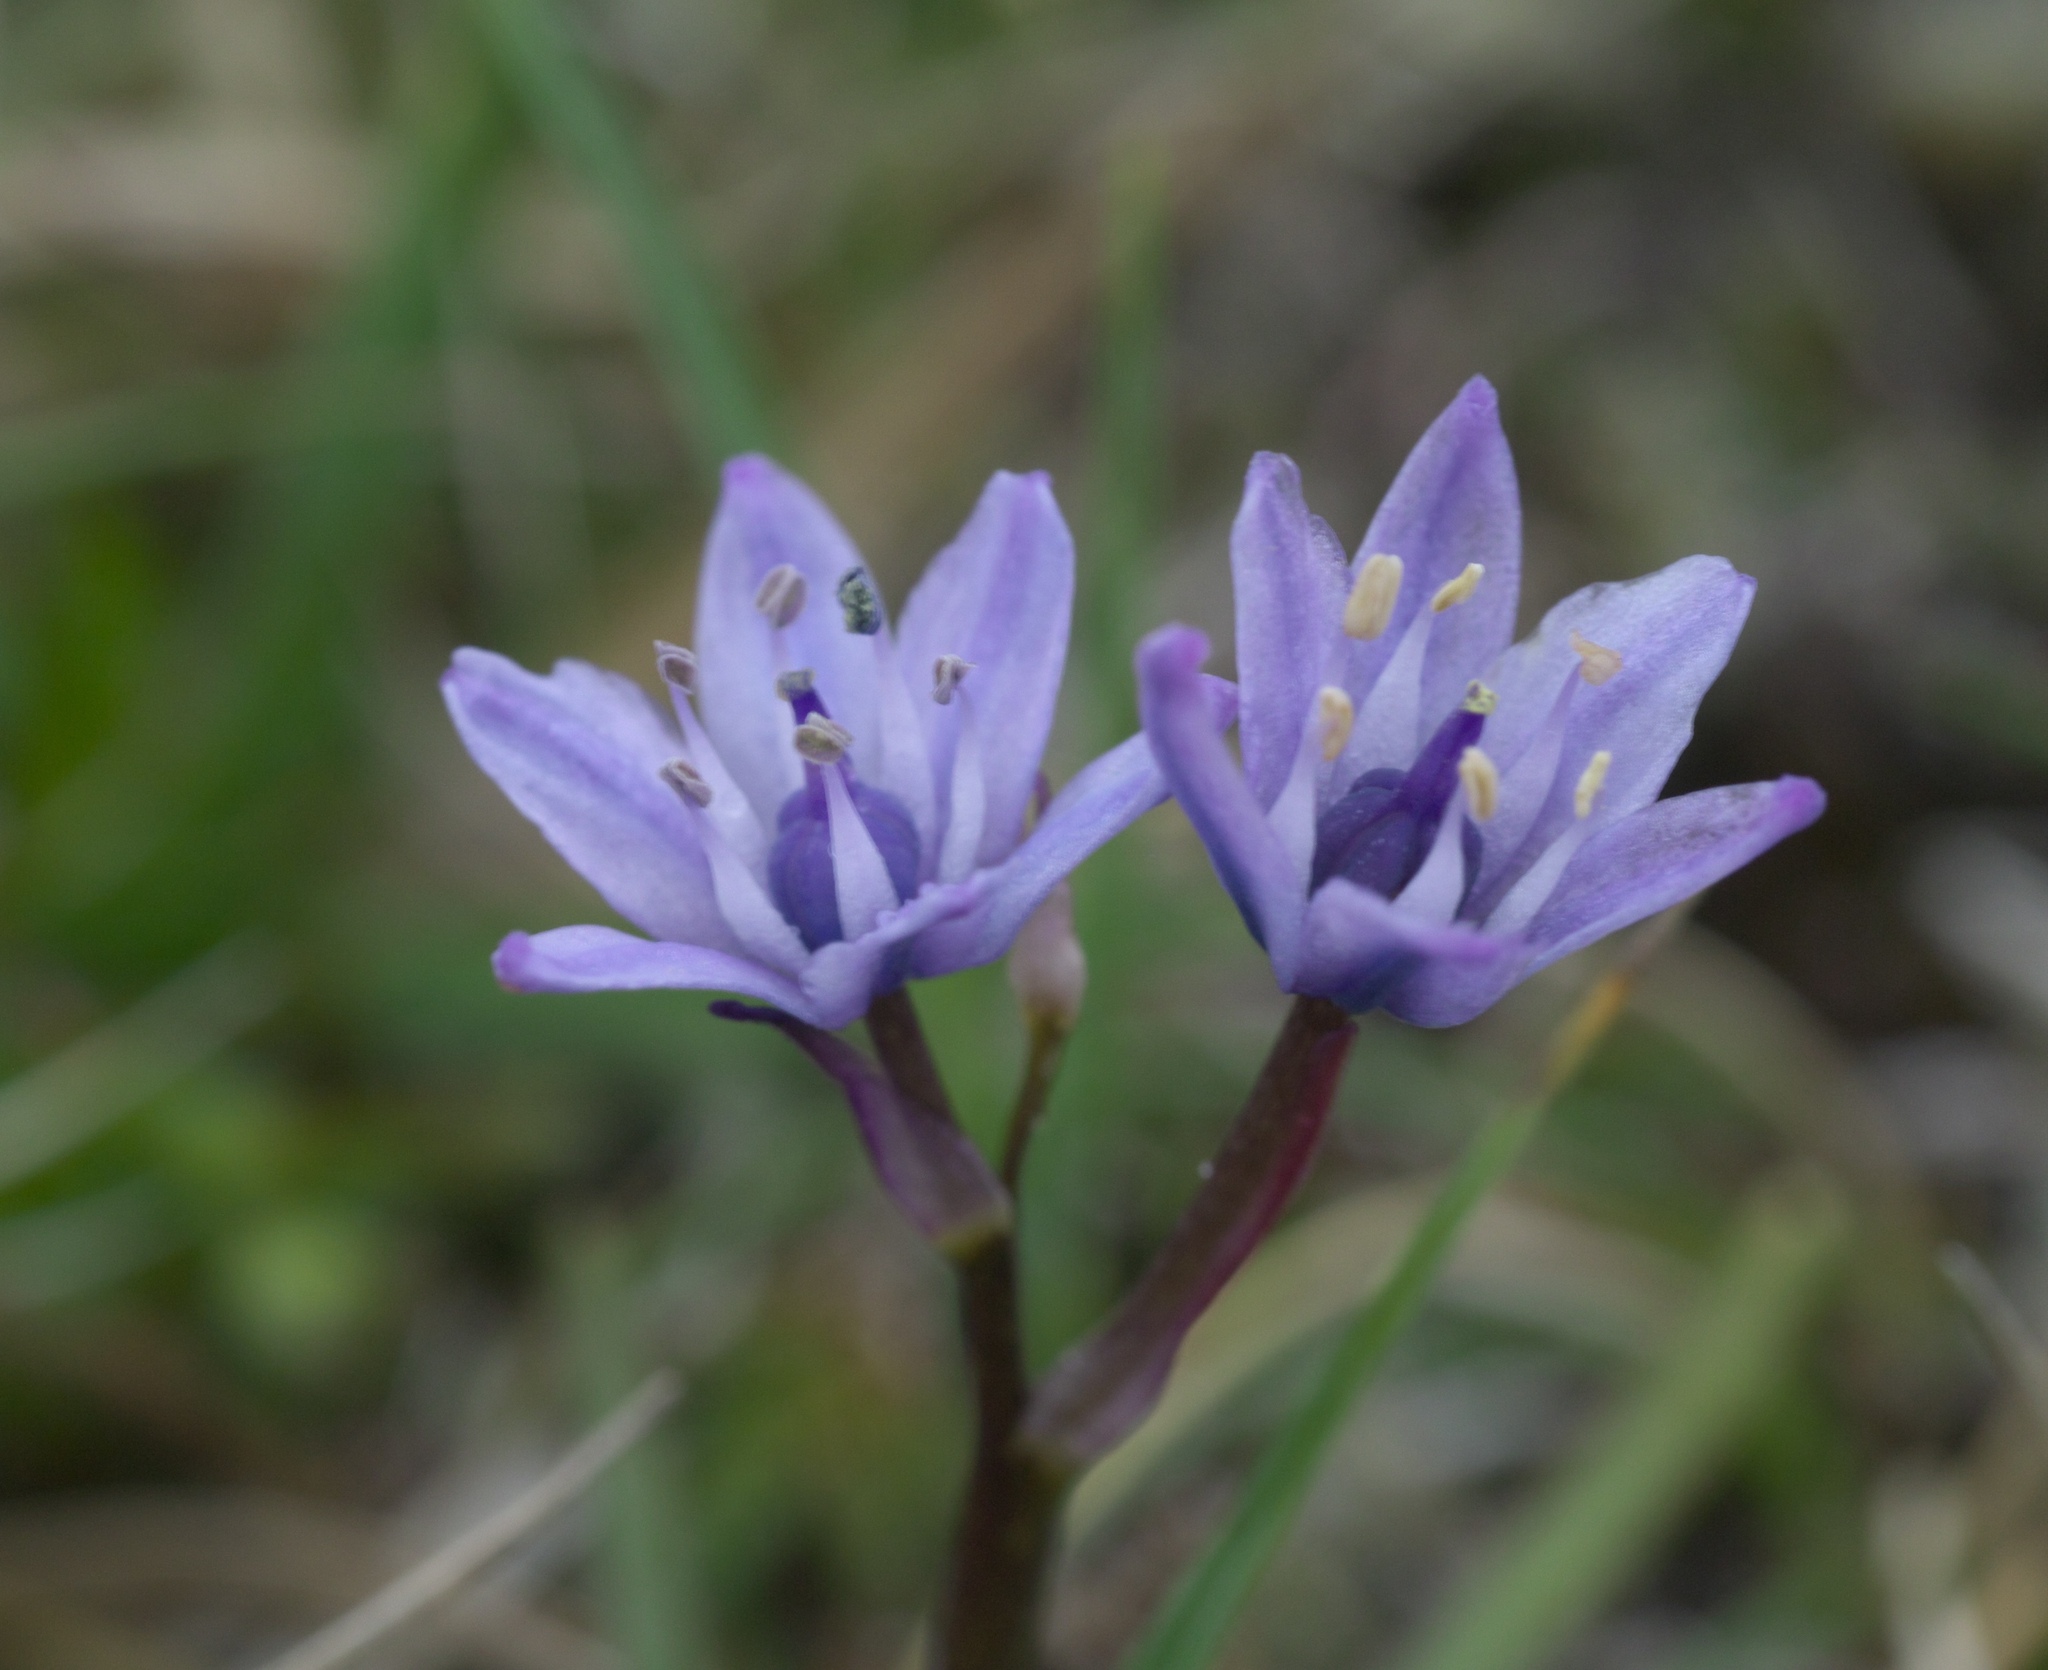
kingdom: Plantae
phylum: Tracheophyta
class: Liliopsida
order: Asparagales
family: Asparagaceae
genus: Scilla
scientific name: Scilla verna
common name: Spring squill
